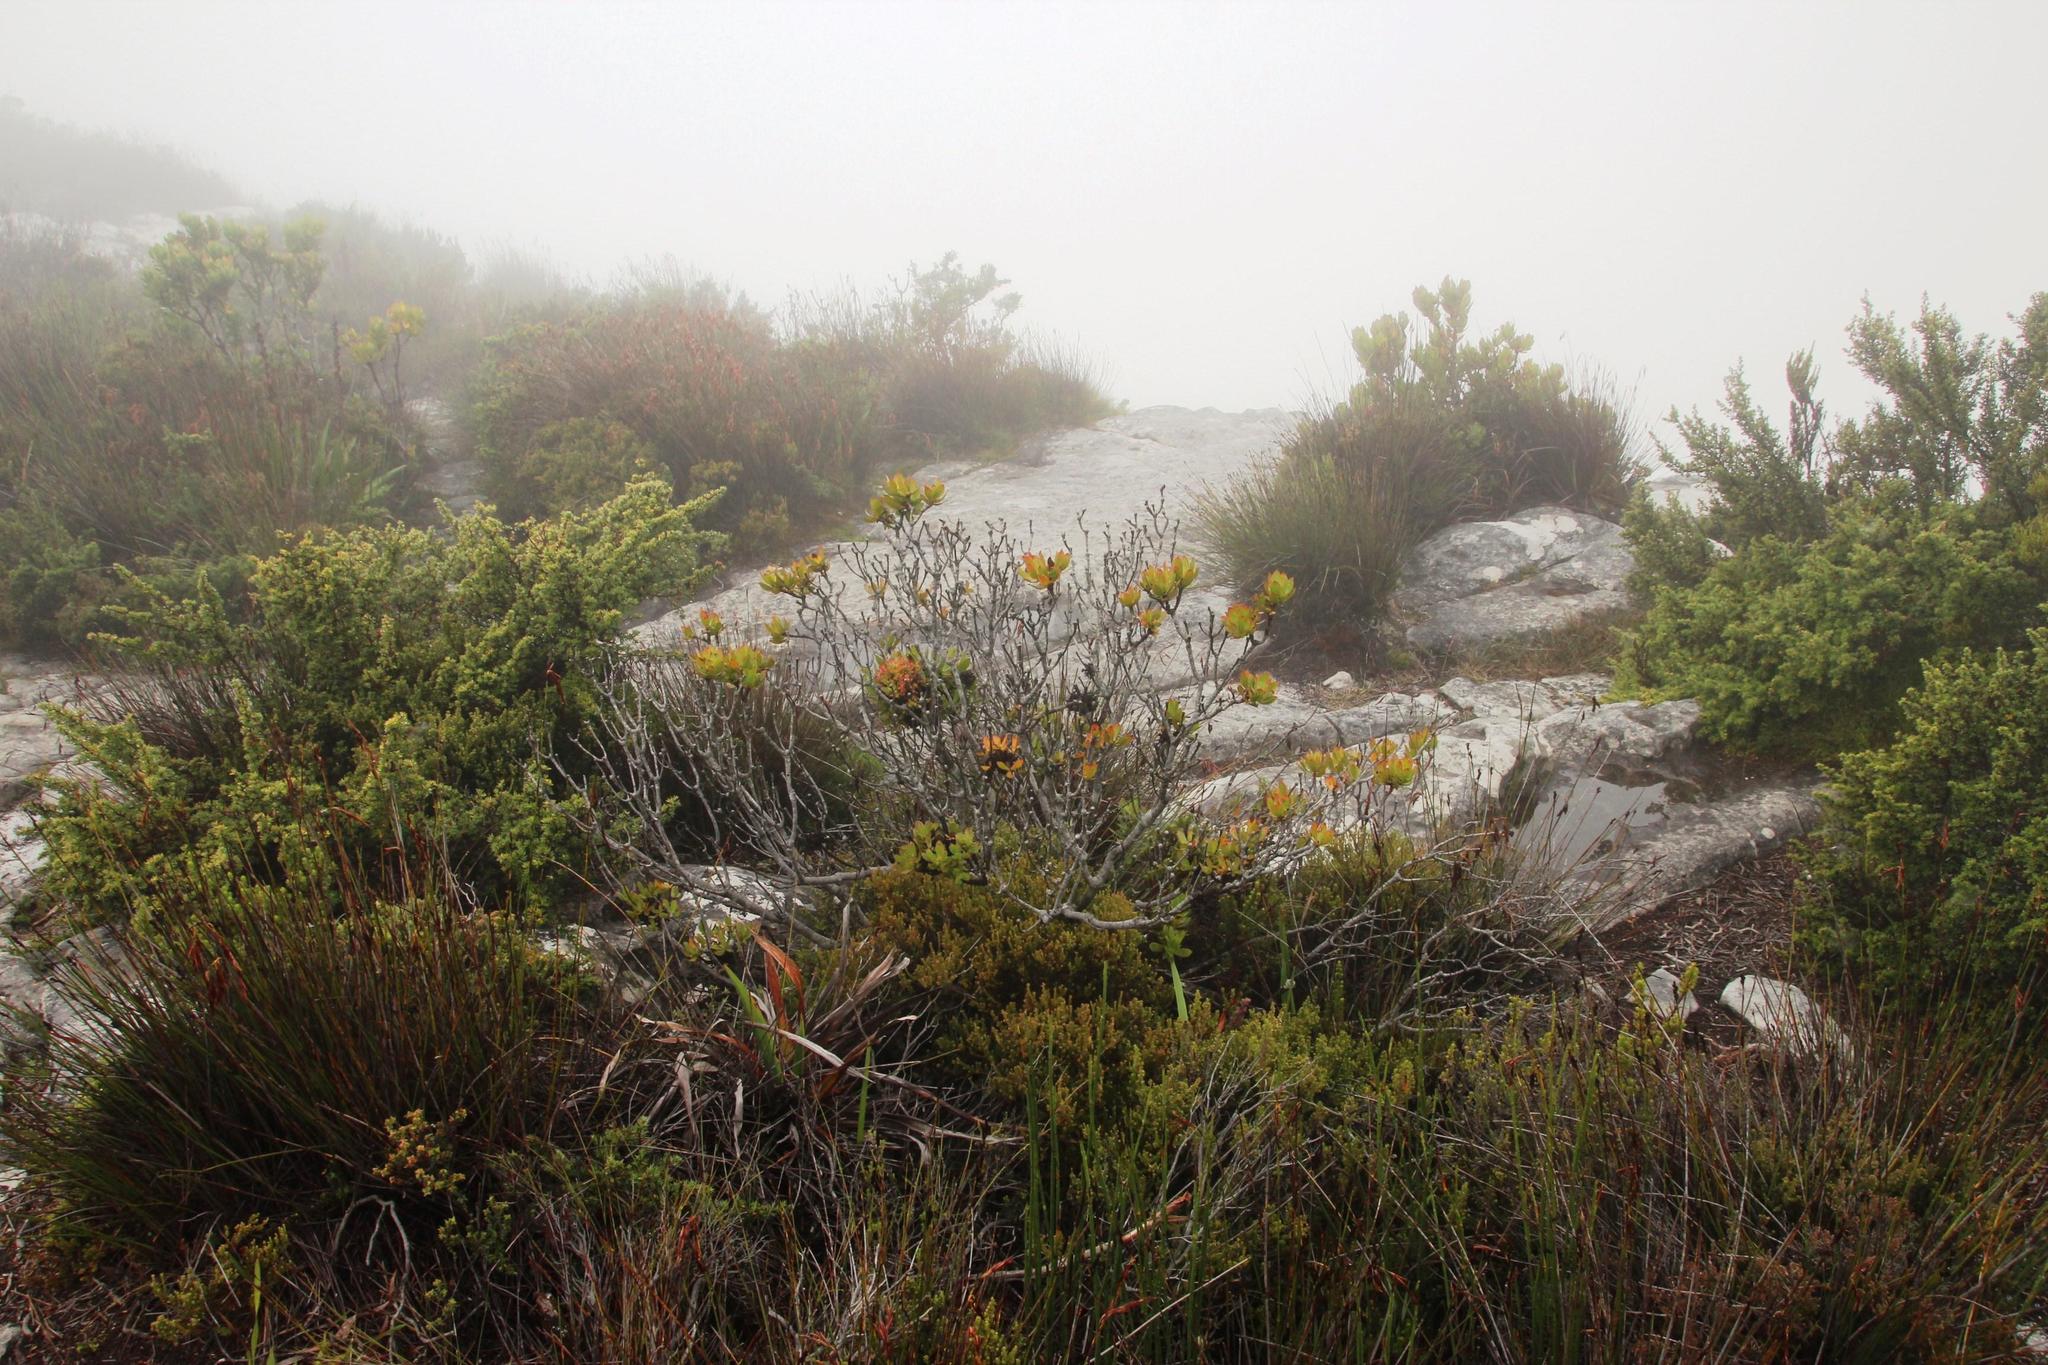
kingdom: Plantae
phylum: Tracheophyta
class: Magnoliopsida
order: Proteales
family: Proteaceae
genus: Leucadendron
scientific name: Leucadendron strobilinum
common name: Mountain rose
